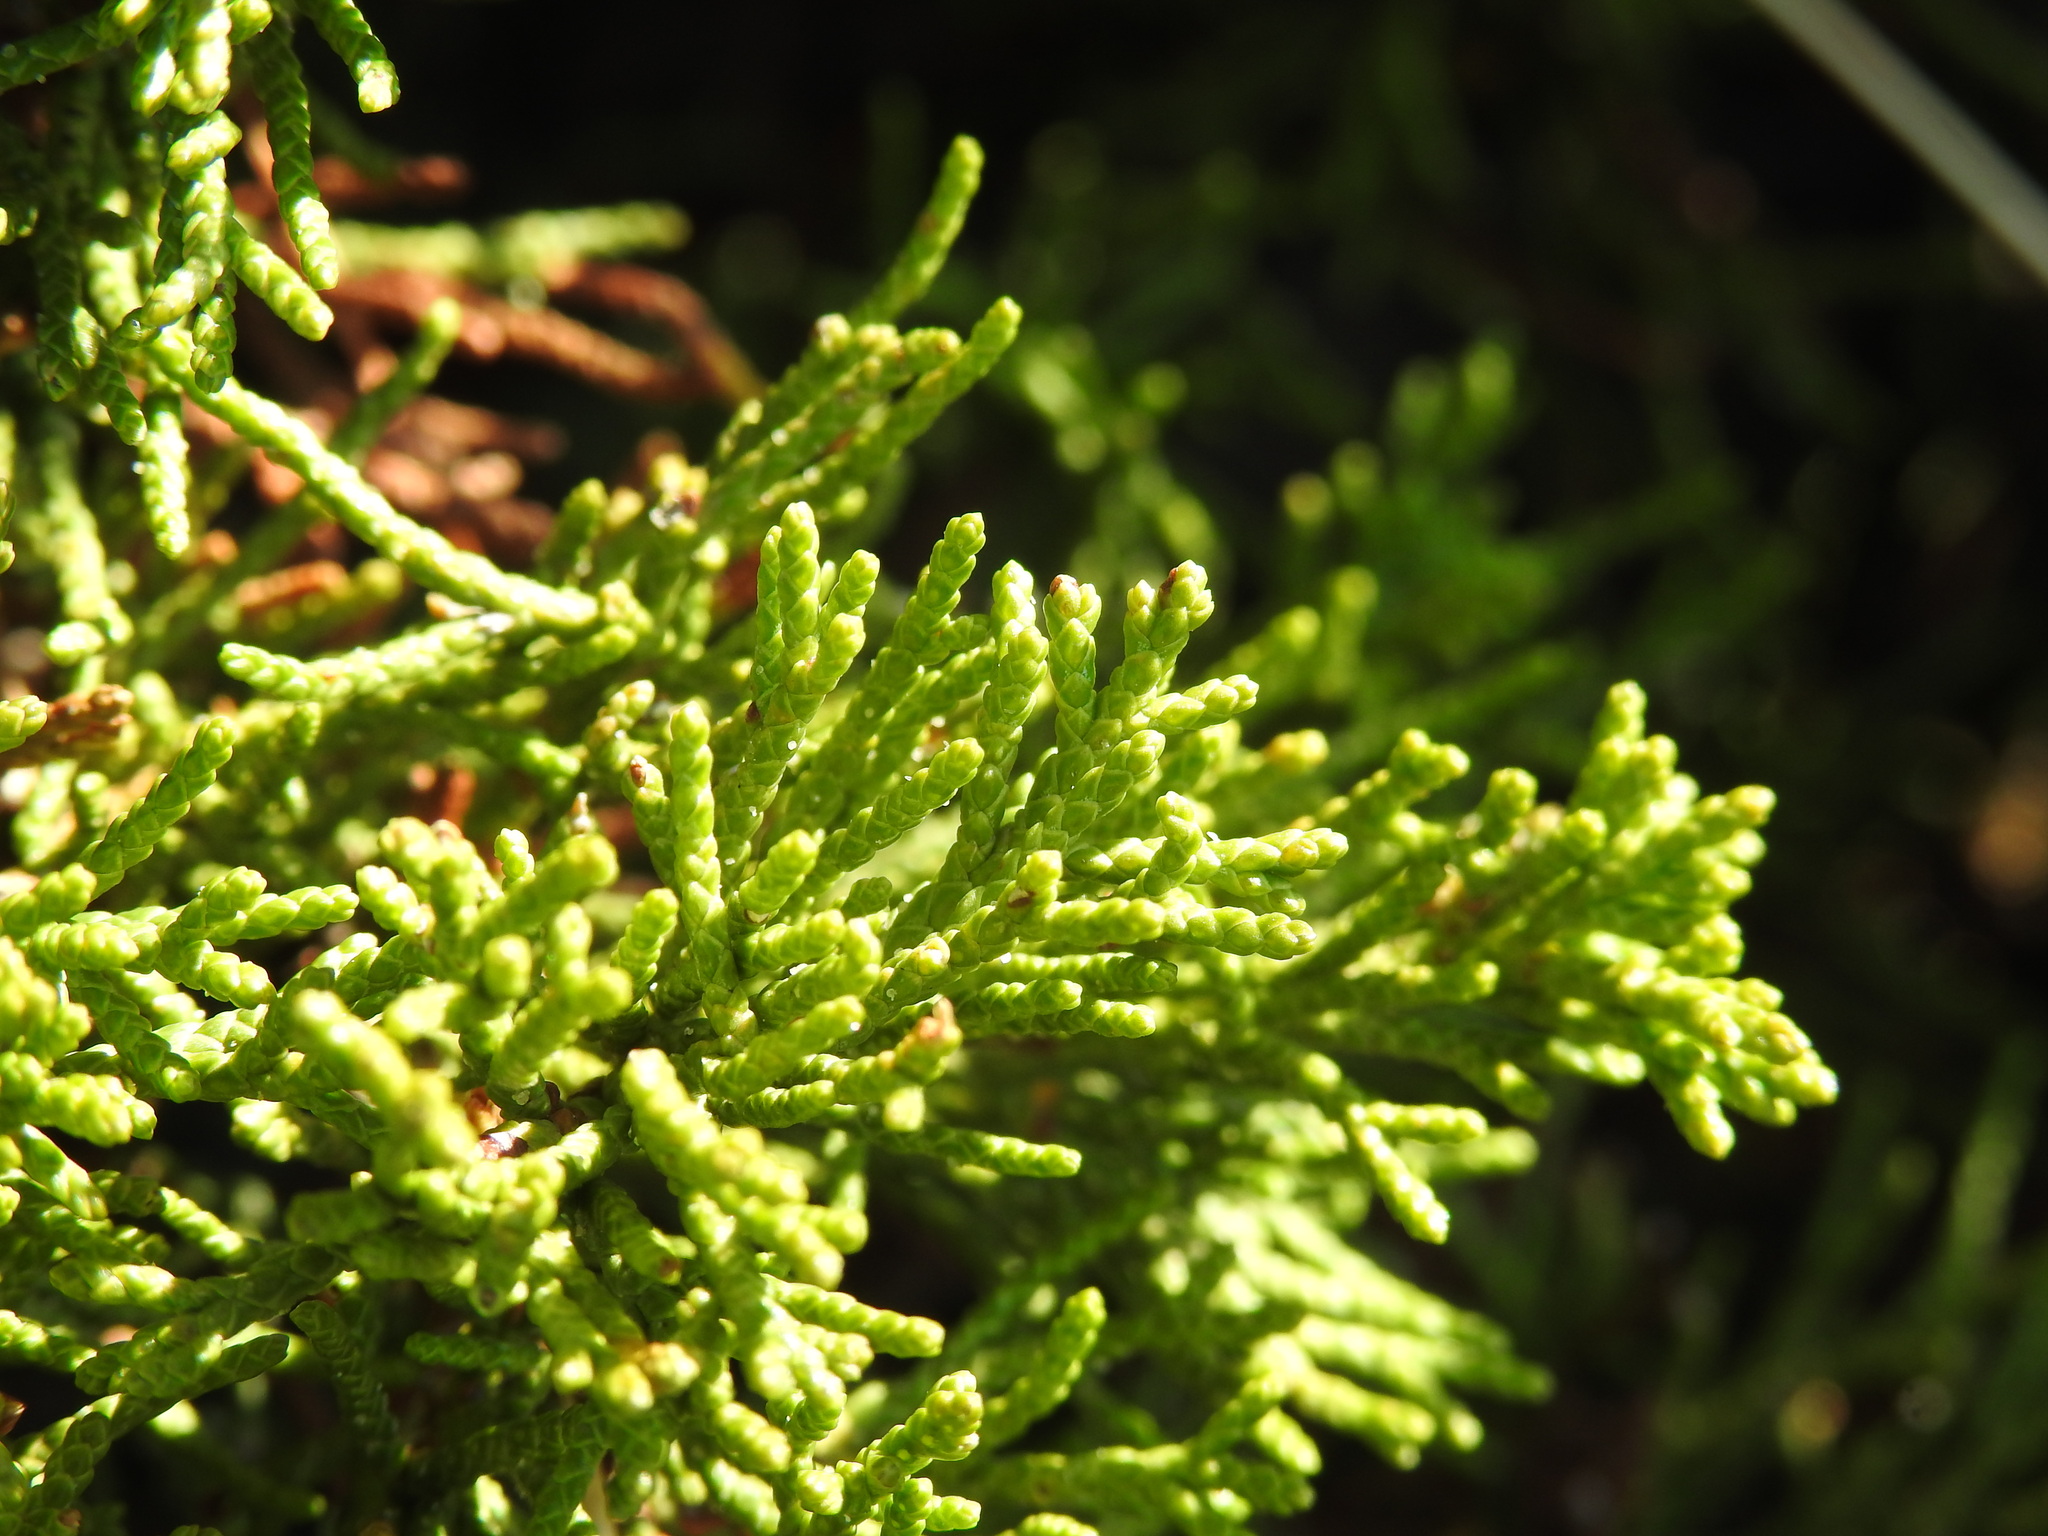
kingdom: Plantae
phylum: Tracheophyta
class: Pinopsida
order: Pinales
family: Cupressaceae
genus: Juniperus
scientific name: Juniperus sabina
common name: Savin
